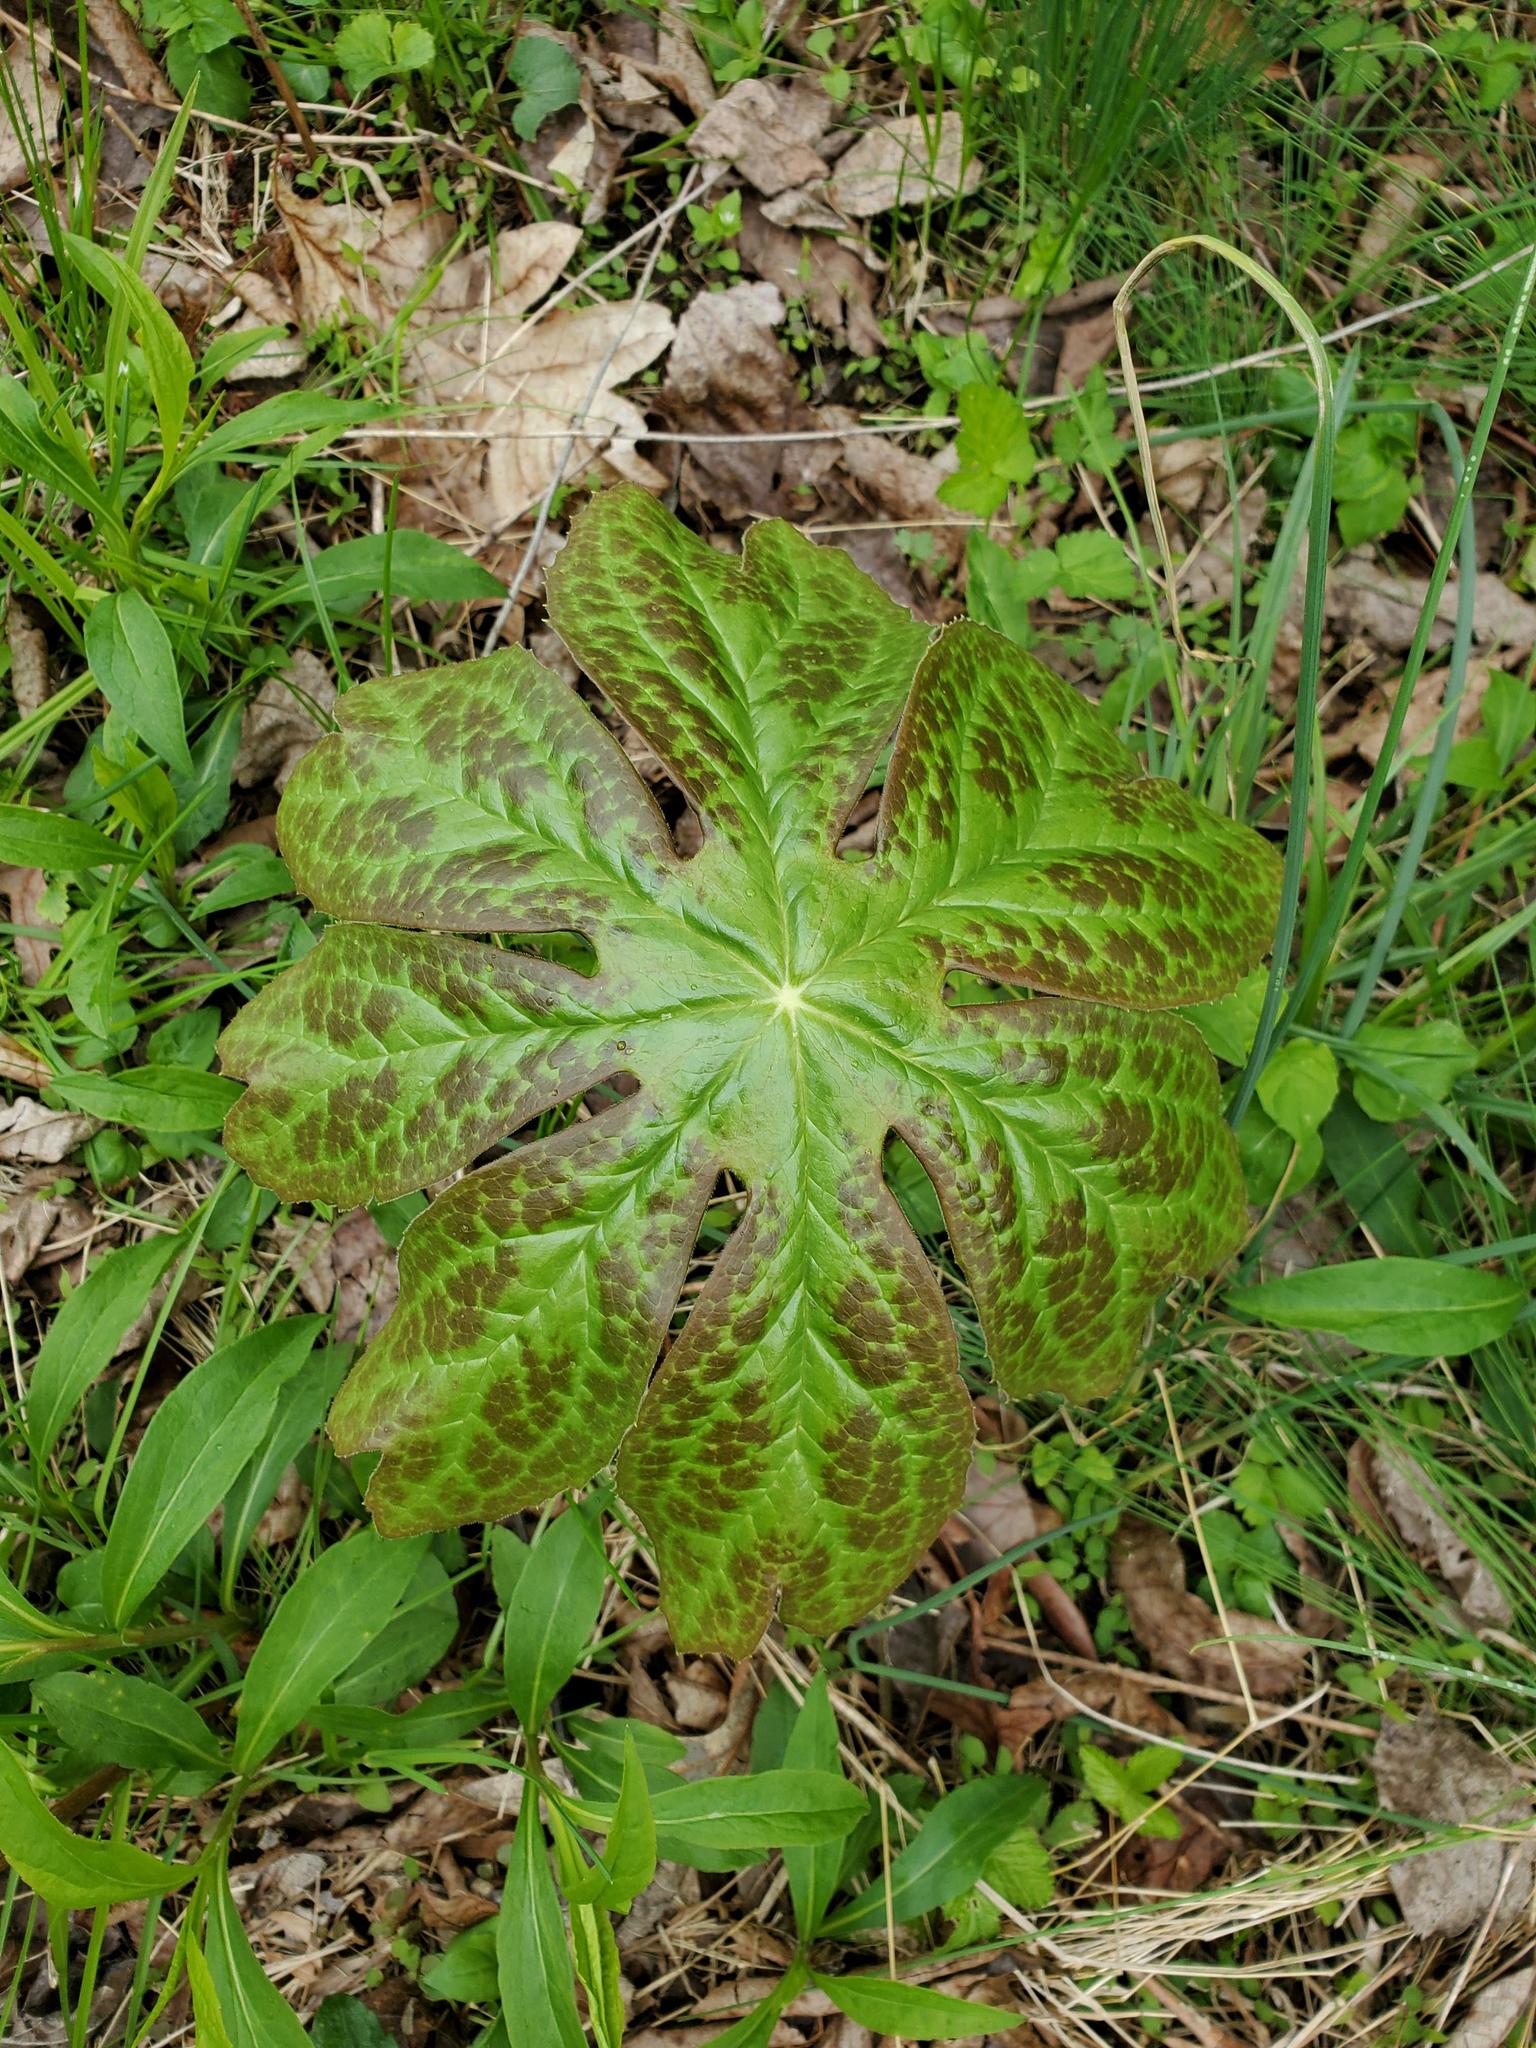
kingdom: Plantae
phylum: Tracheophyta
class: Magnoliopsida
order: Ranunculales
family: Berberidaceae
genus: Podophyllum
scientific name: Podophyllum peltatum
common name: Wild mandrake
